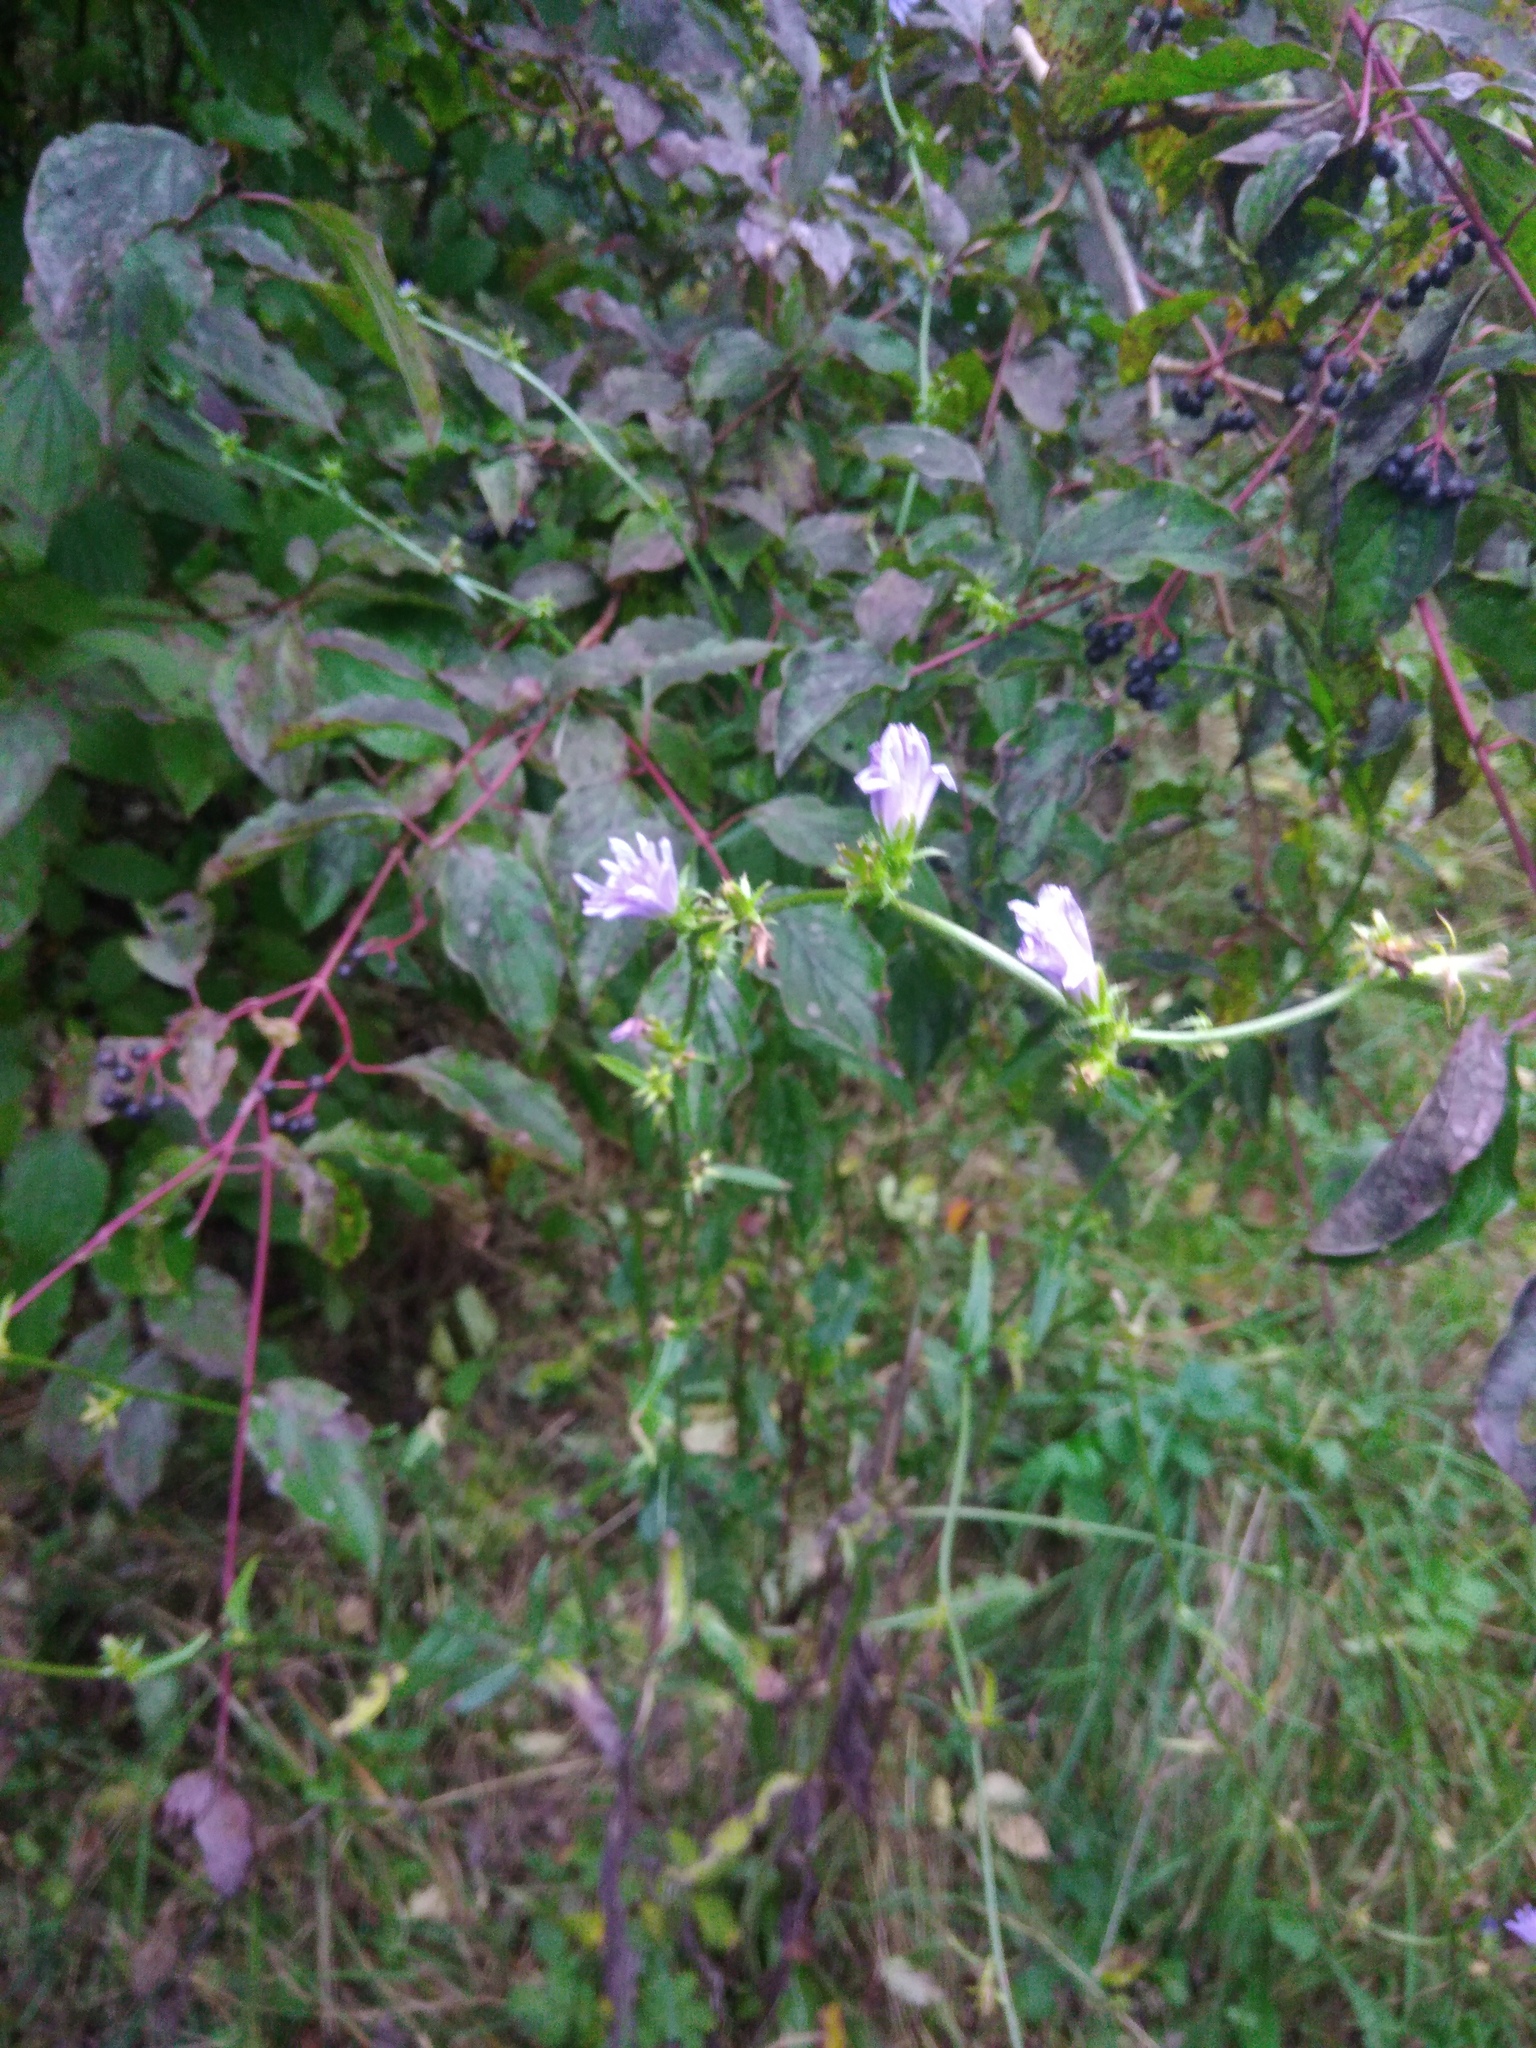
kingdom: Plantae
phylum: Tracheophyta
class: Magnoliopsida
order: Asterales
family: Asteraceae
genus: Cichorium
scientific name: Cichorium intybus
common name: Chicory
